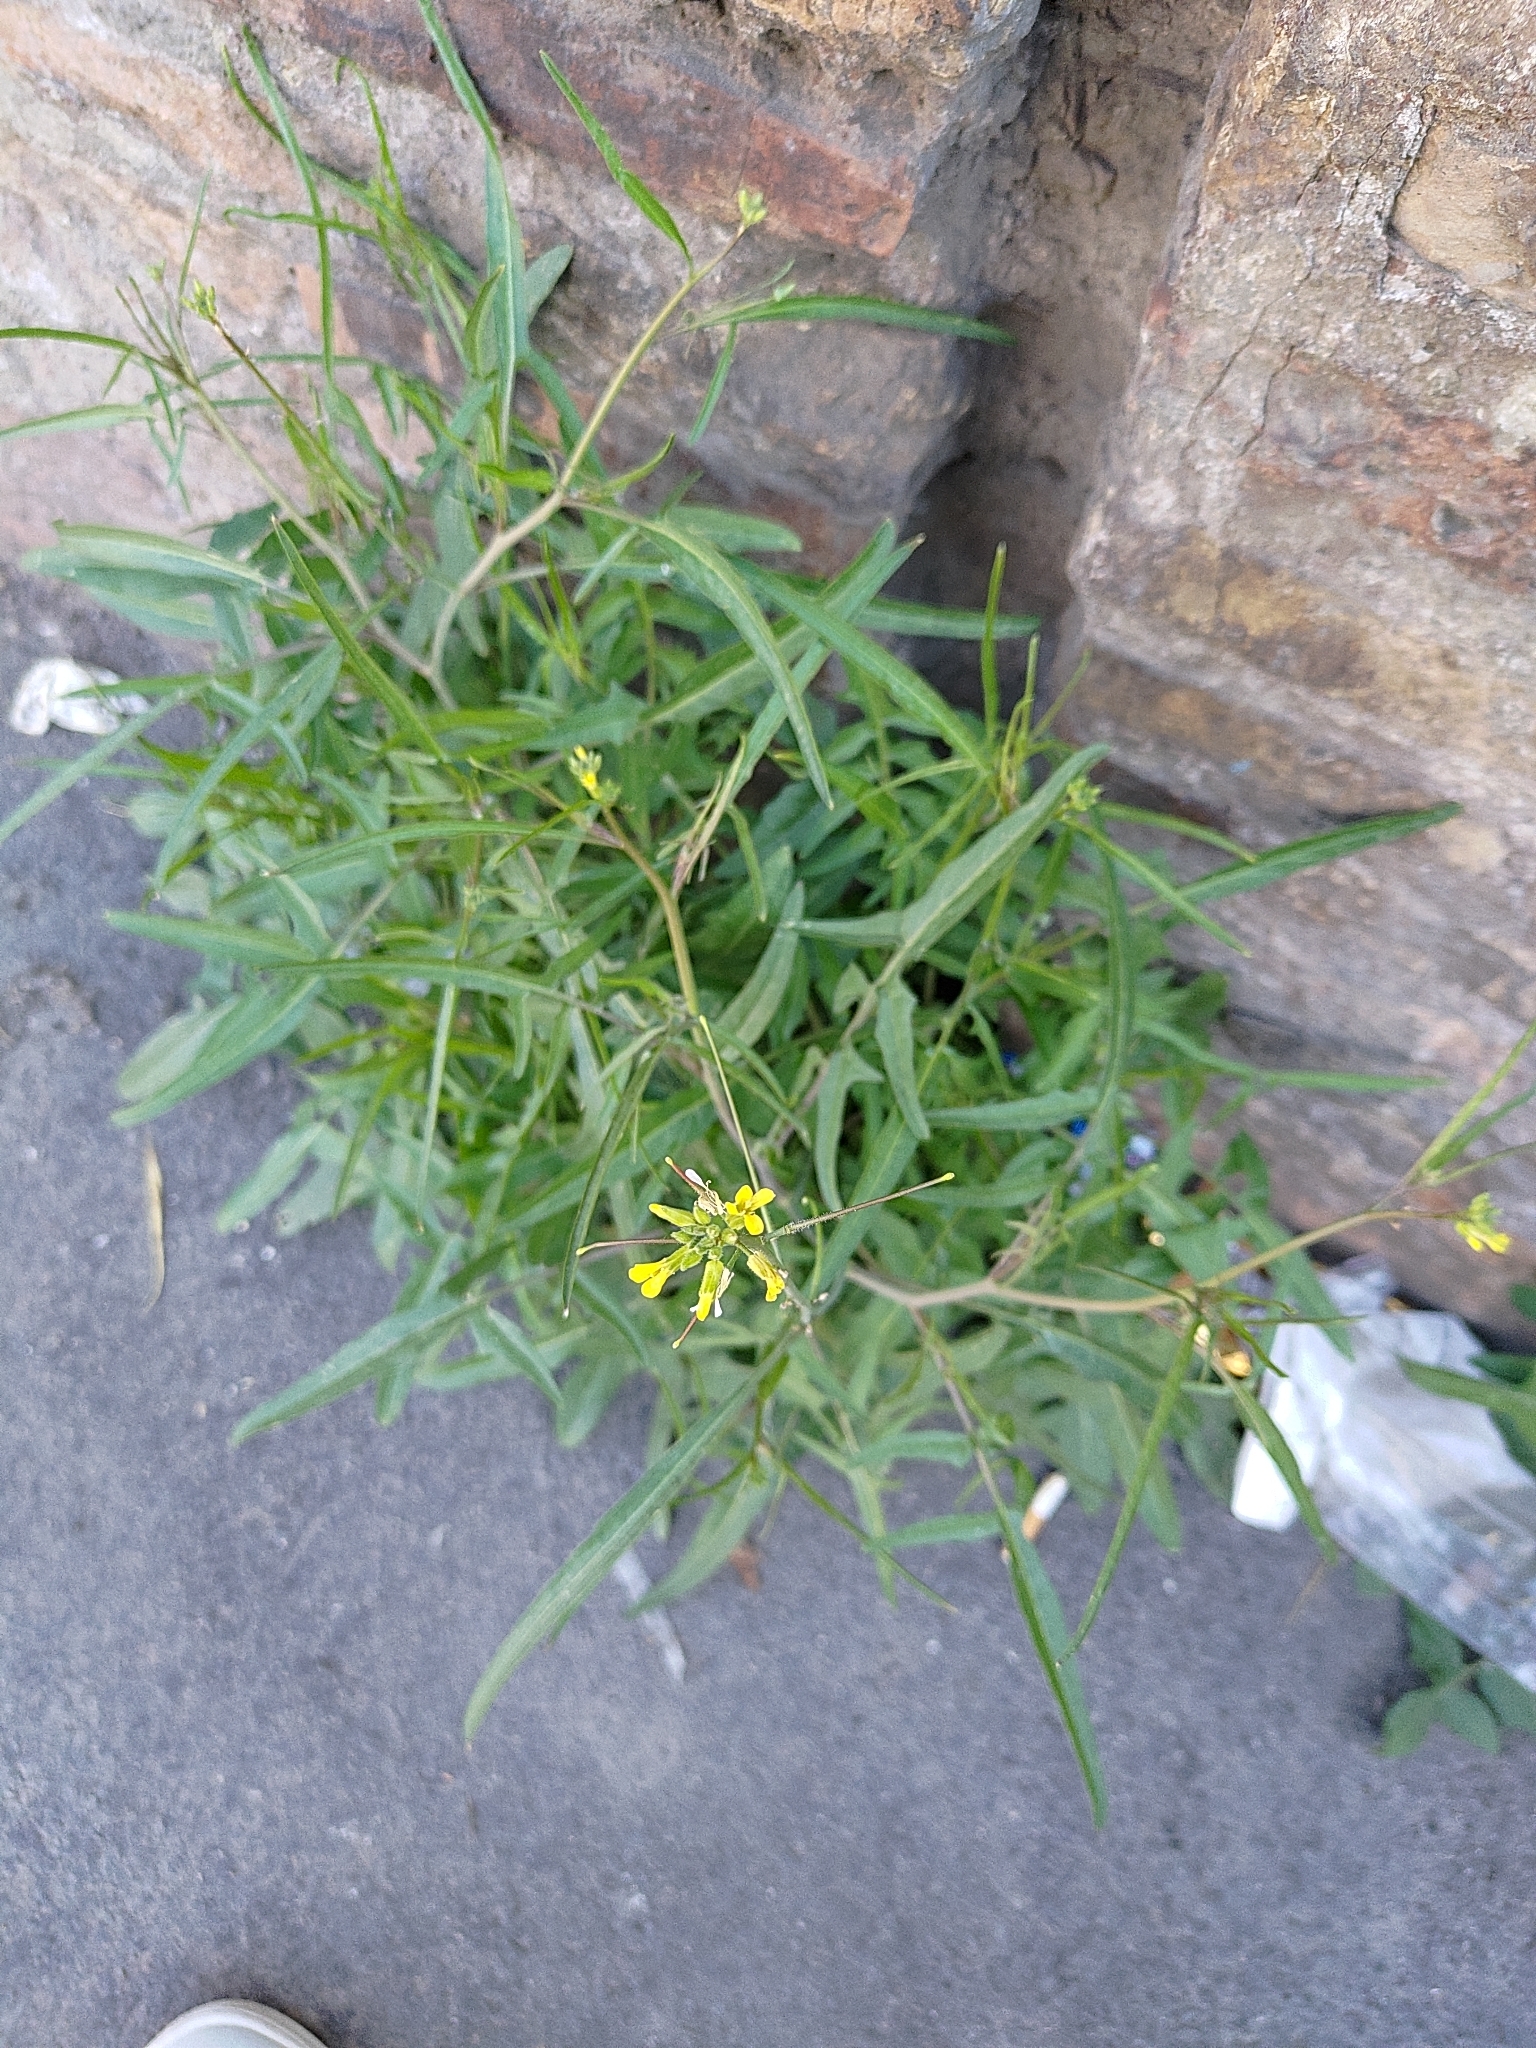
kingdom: Plantae
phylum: Tracheophyta
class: Magnoliopsida
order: Brassicales
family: Brassicaceae
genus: Sisymbrium
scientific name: Sisymbrium orientale
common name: Eastern rocket
